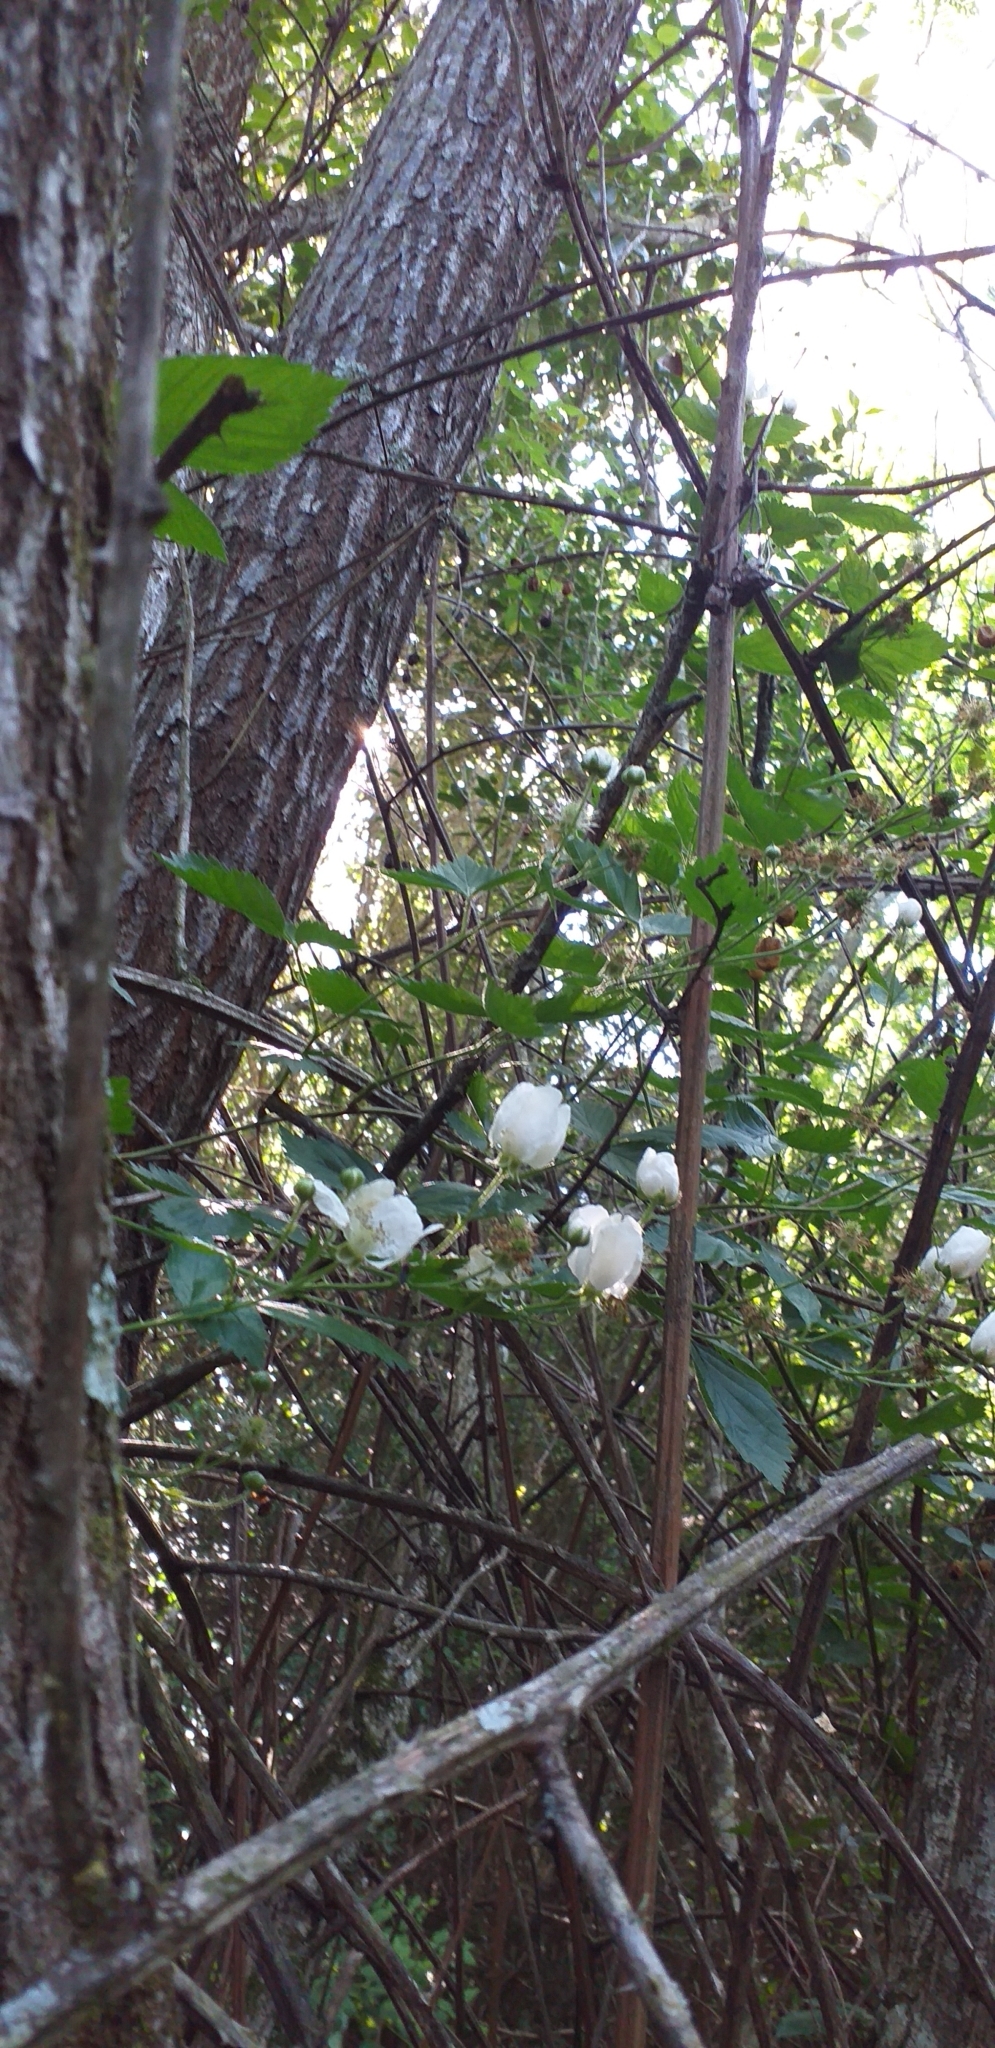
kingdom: Plantae
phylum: Tracheophyta
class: Magnoliopsida
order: Rosales
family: Rosaceae
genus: Rubus
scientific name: Rubus ulmifolius
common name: Elmleaf blackberry
